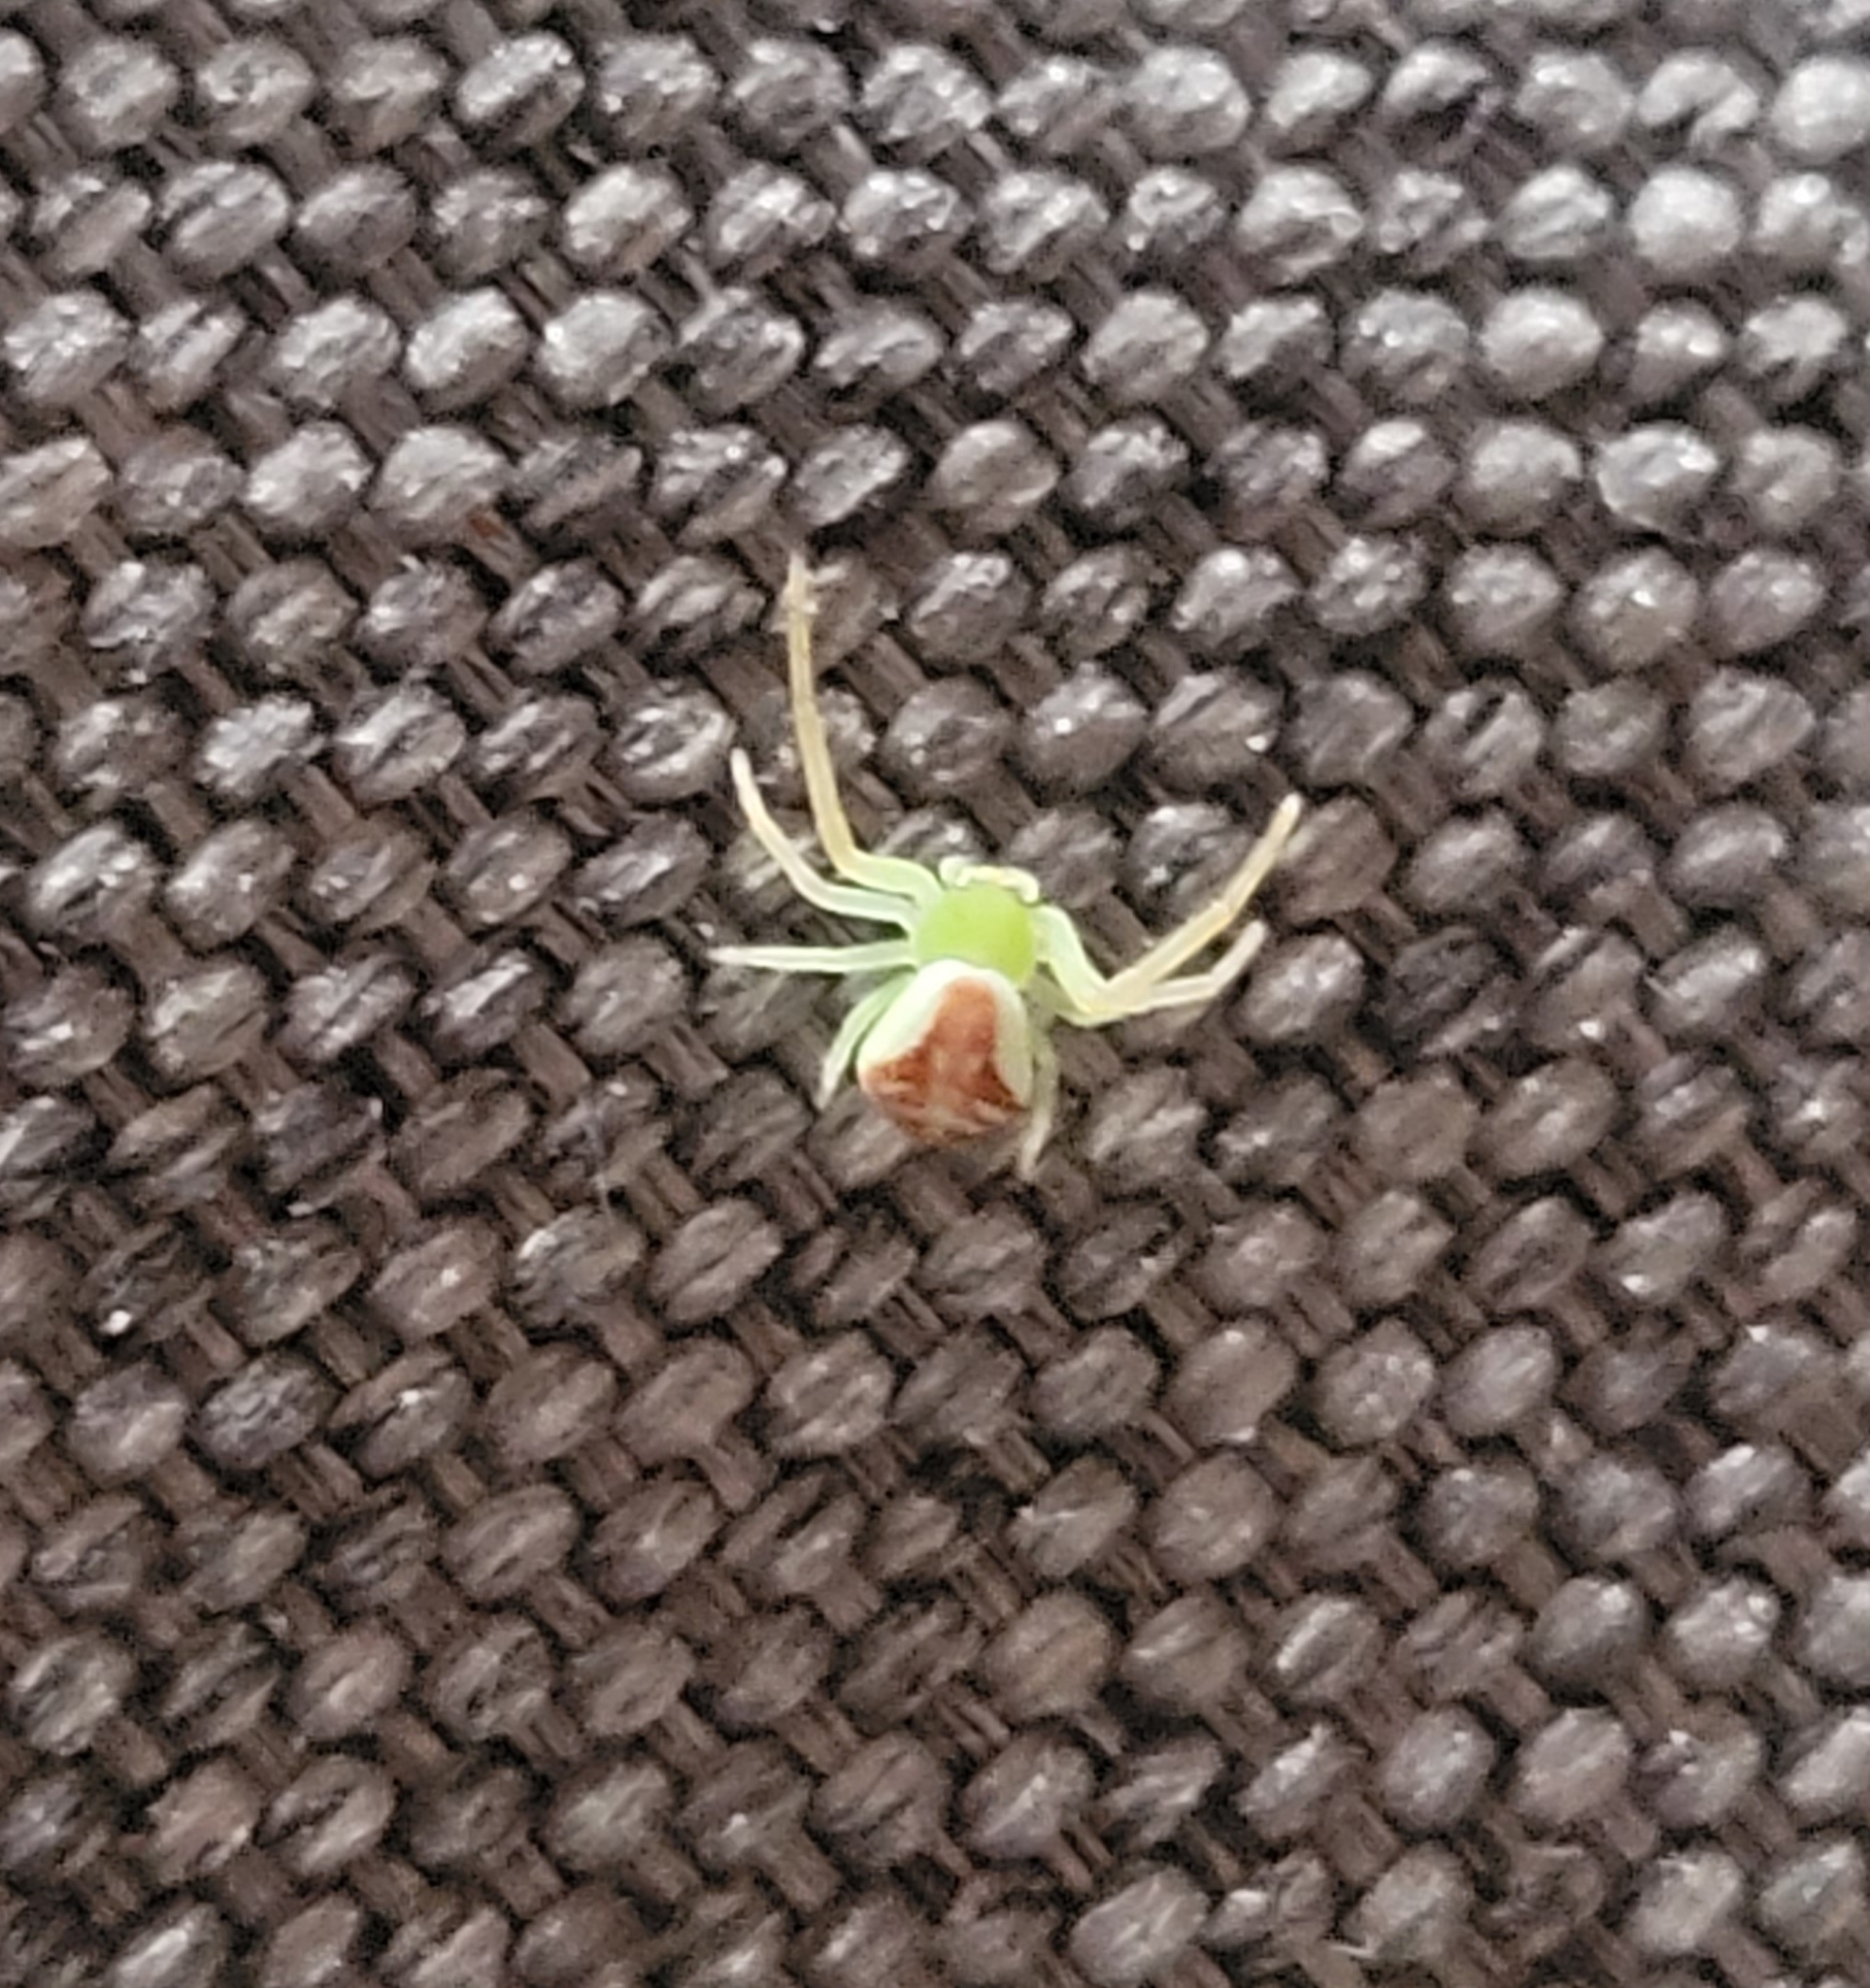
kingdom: Animalia
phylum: Arthropoda
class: Arachnida
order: Araneae
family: Thomisidae
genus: Ebrechtella
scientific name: Ebrechtella tricuspidata
